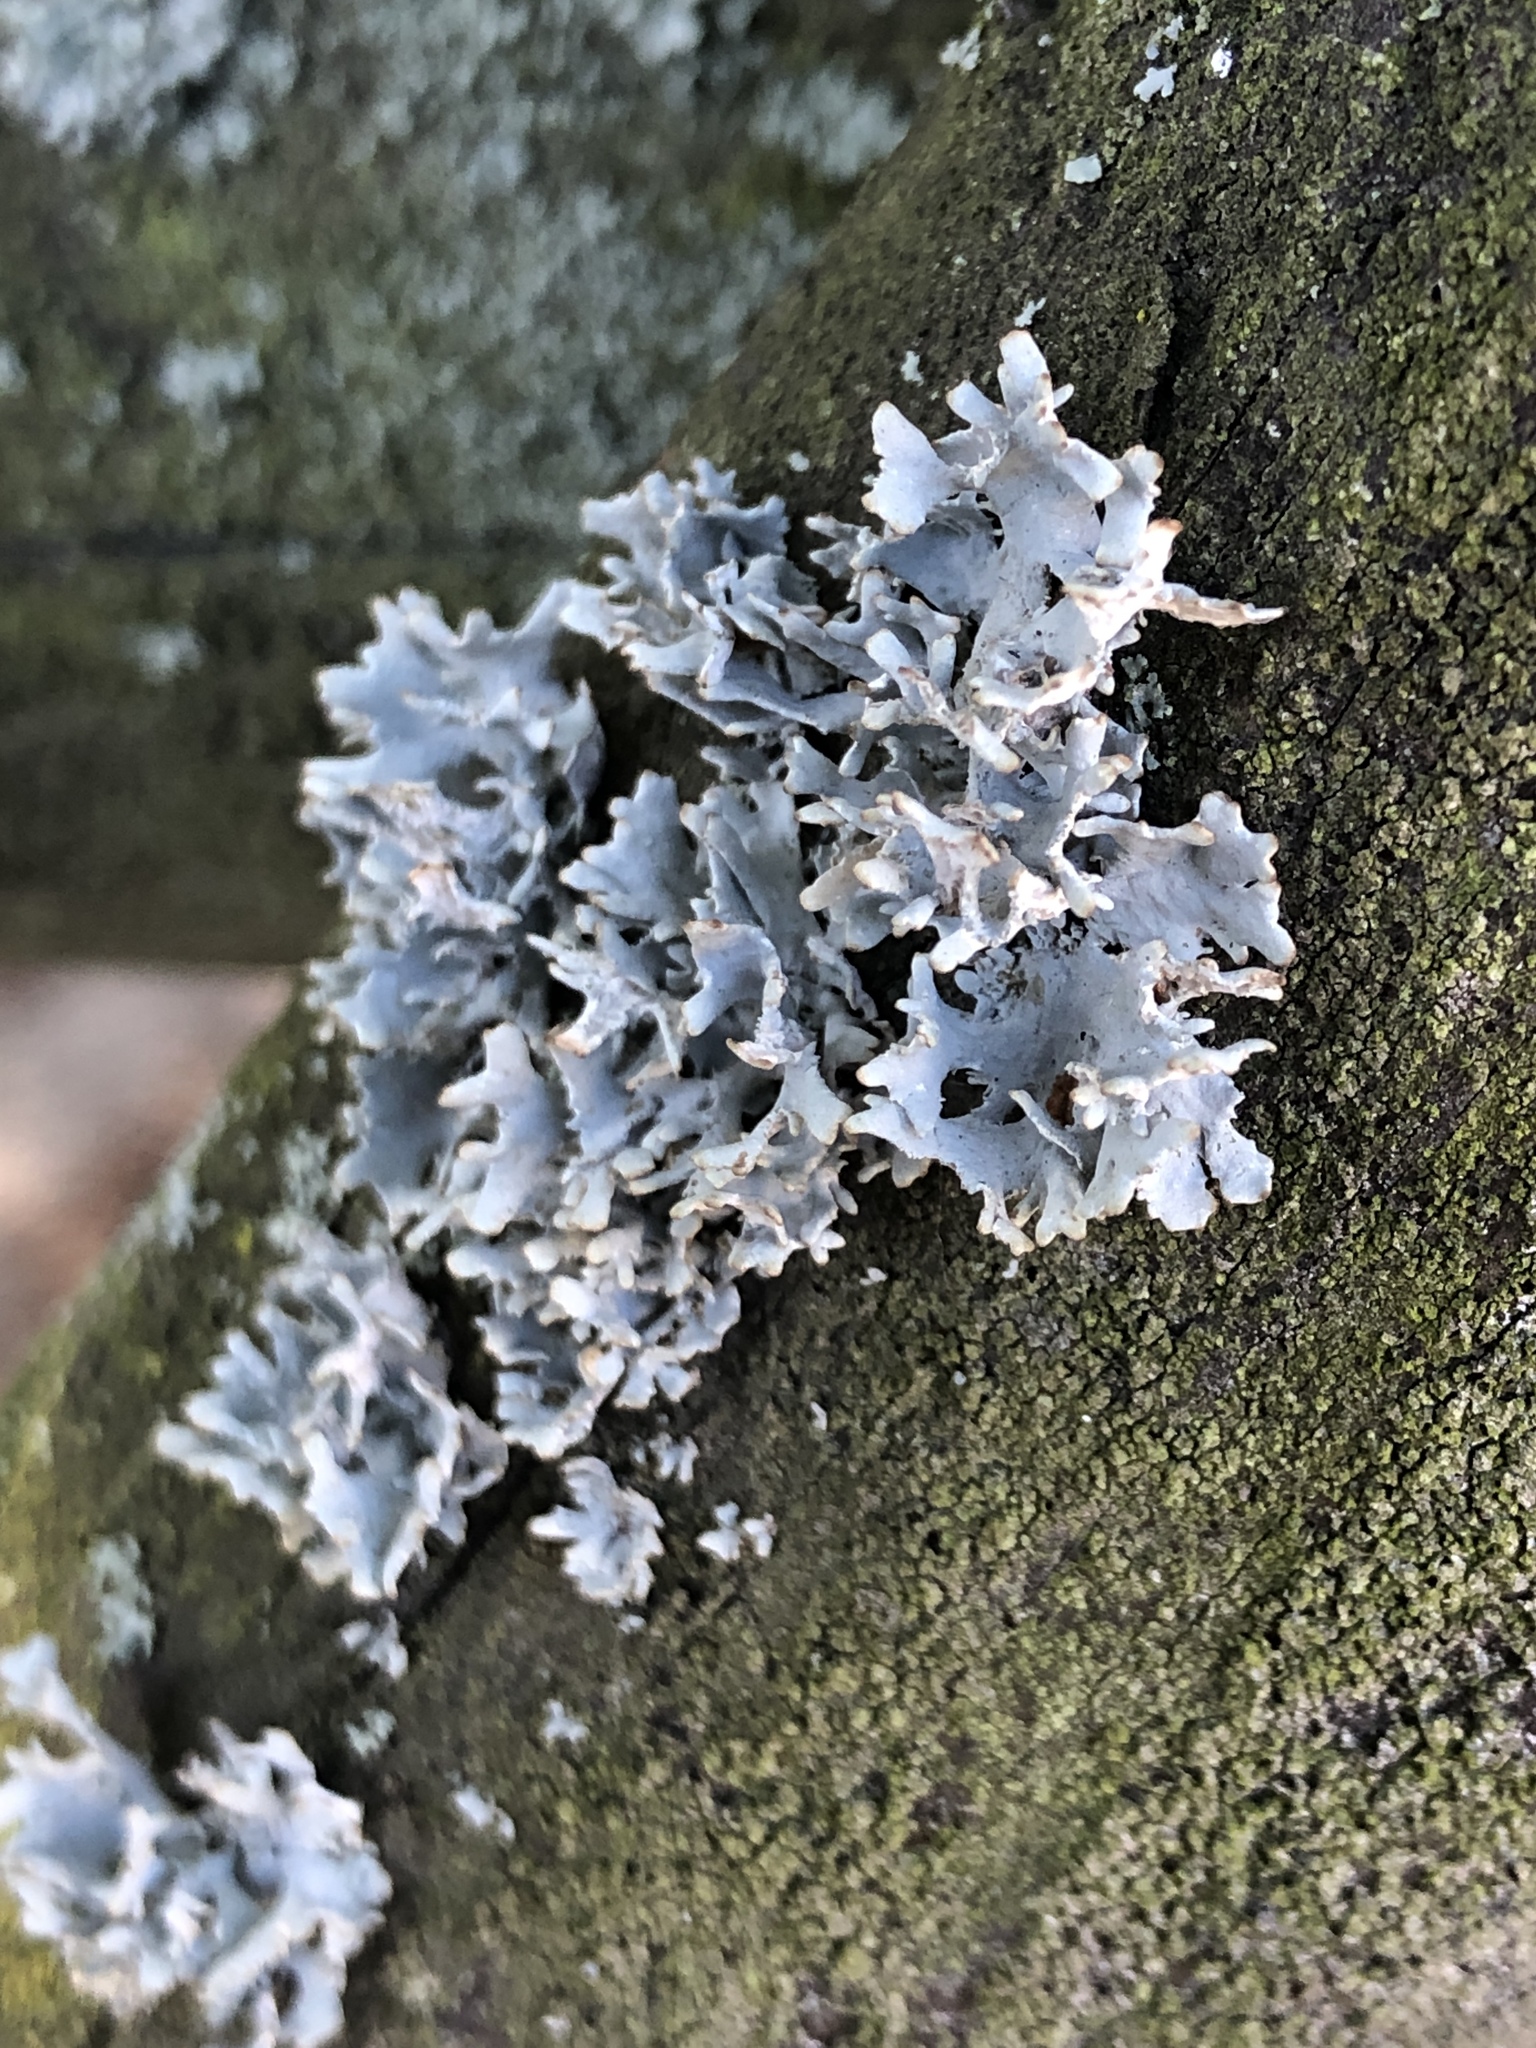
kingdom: Fungi
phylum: Ascomycota
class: Lecanoromycetes
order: Caliciales
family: Physciaceae
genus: Physcia
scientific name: Physcia adscendens
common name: Hooded rosette lichen
